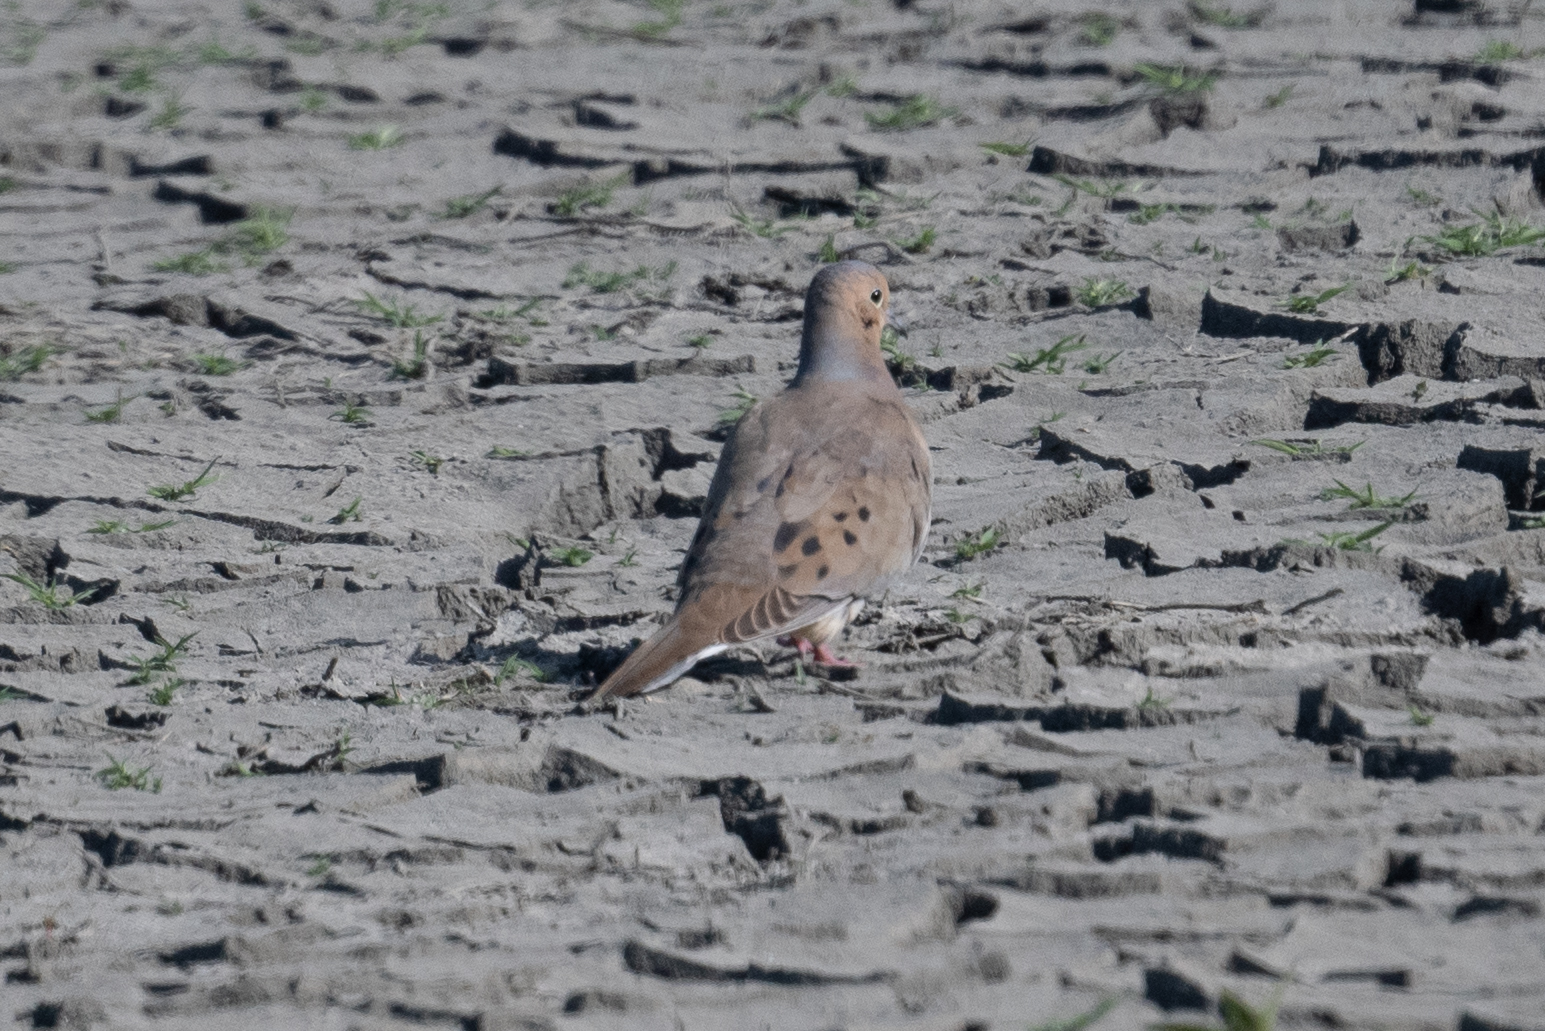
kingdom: Animalia
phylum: Chordata
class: Aves
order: Columbiformes
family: Columbidae
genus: Zenaida
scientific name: Zenaida macroura
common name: Mourning dove
